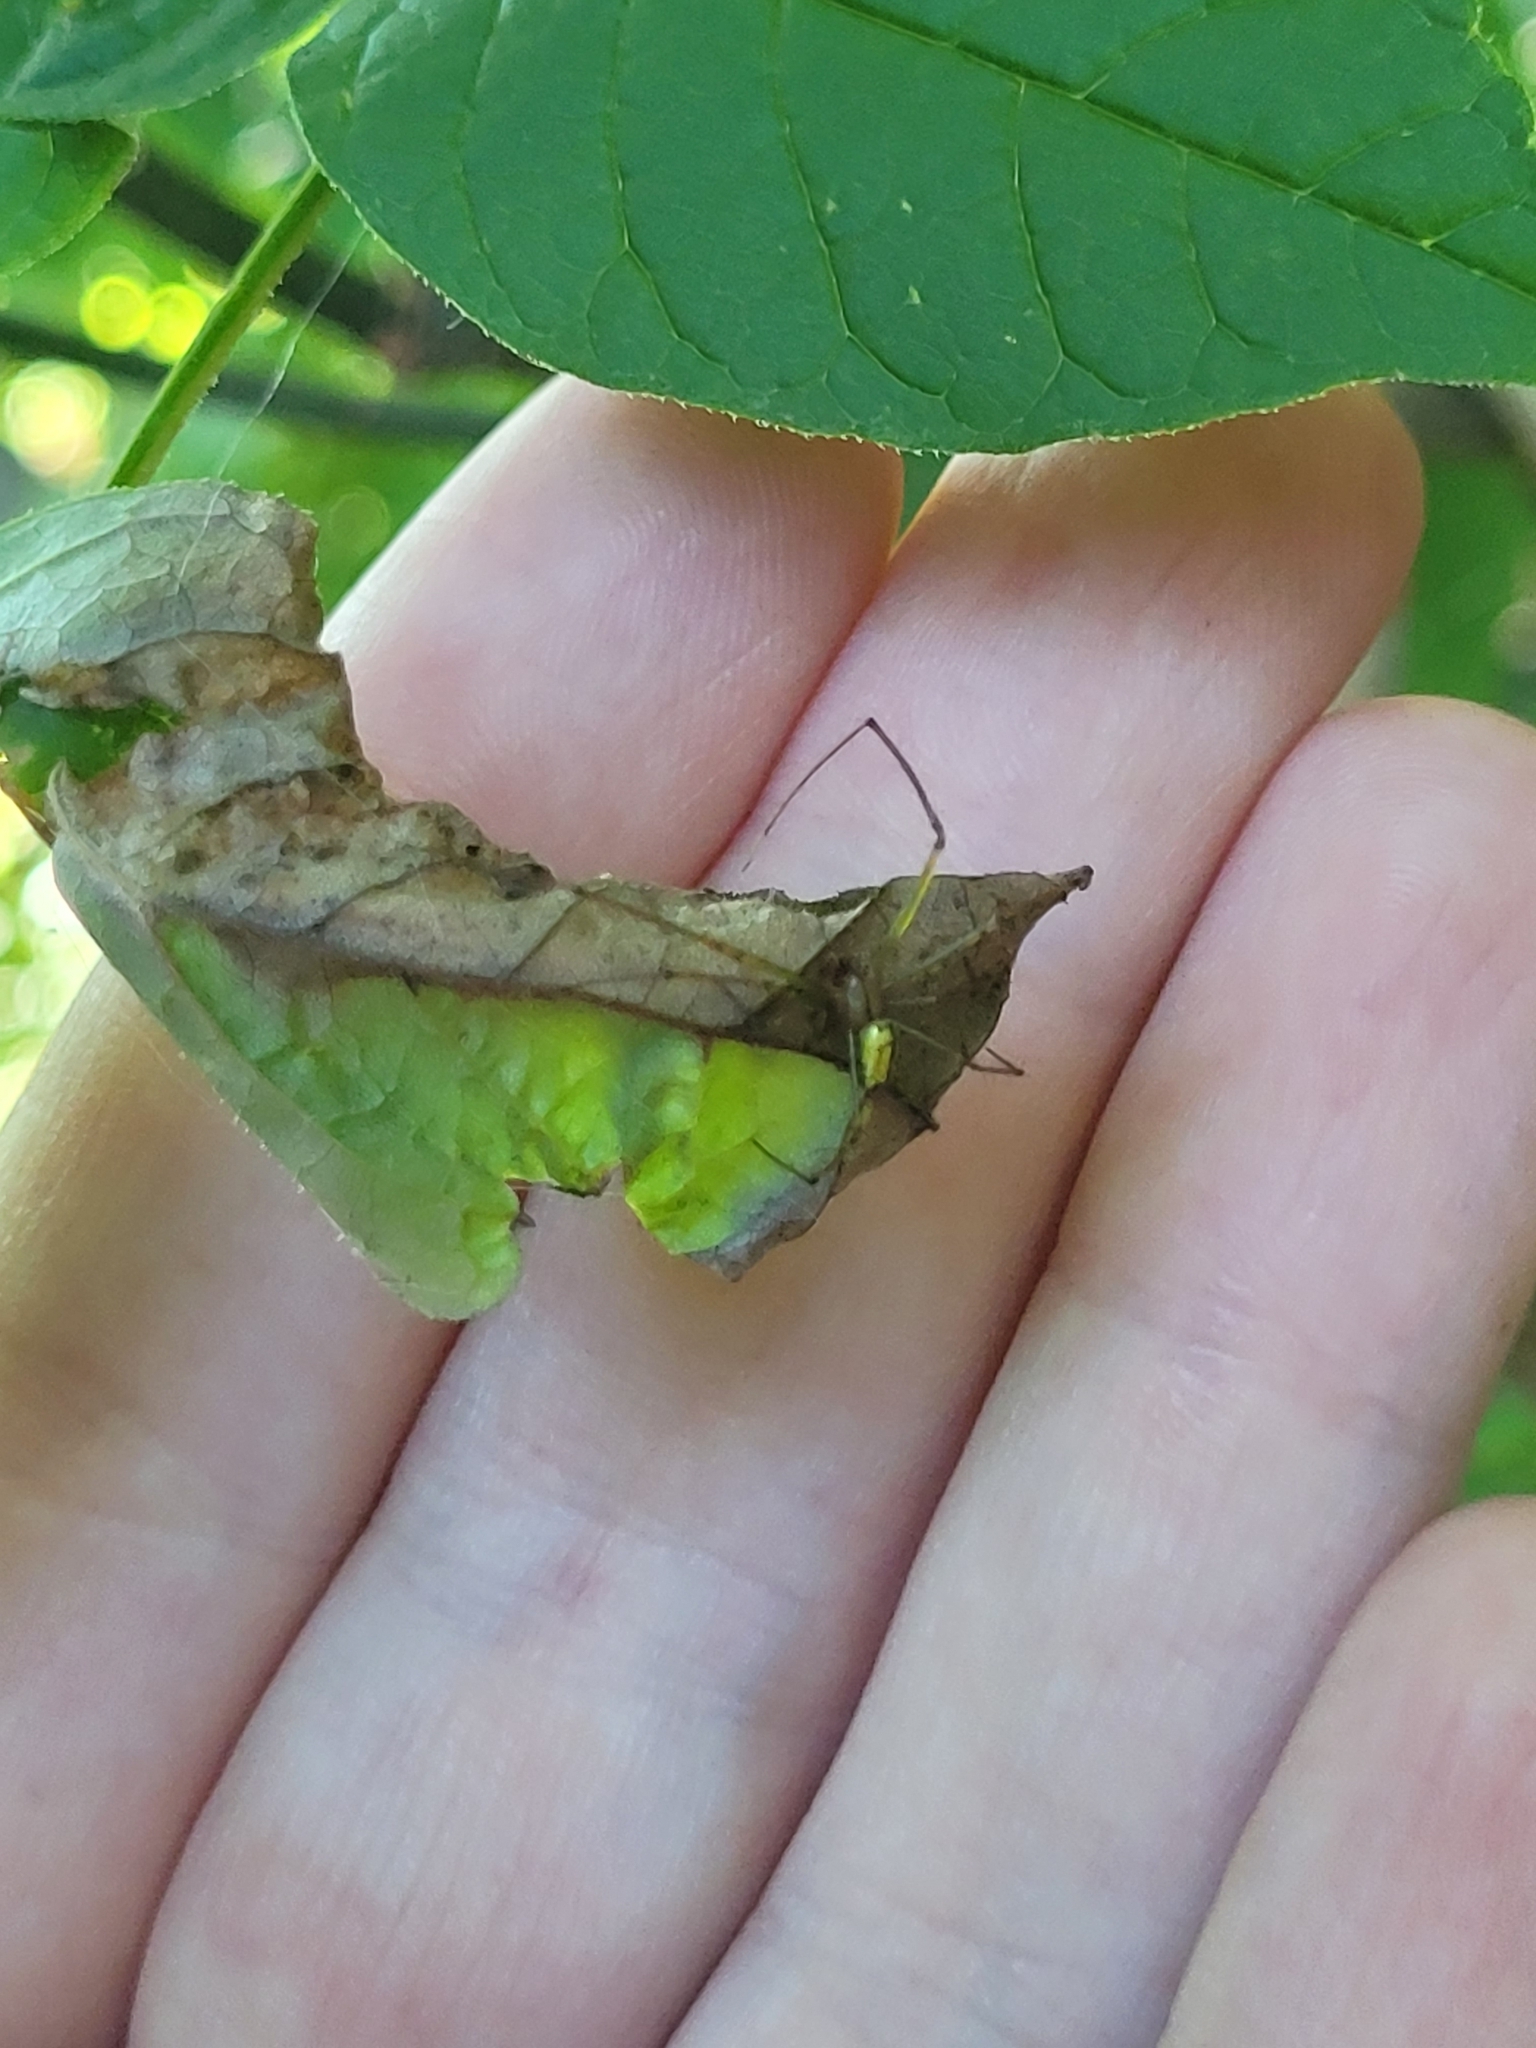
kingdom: Animalia
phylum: Arthropoda
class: Arachnida
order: Araneae
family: Tetragnathidae
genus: Leucauge
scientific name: Leucauge venusta
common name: Longjawed orb weavers
